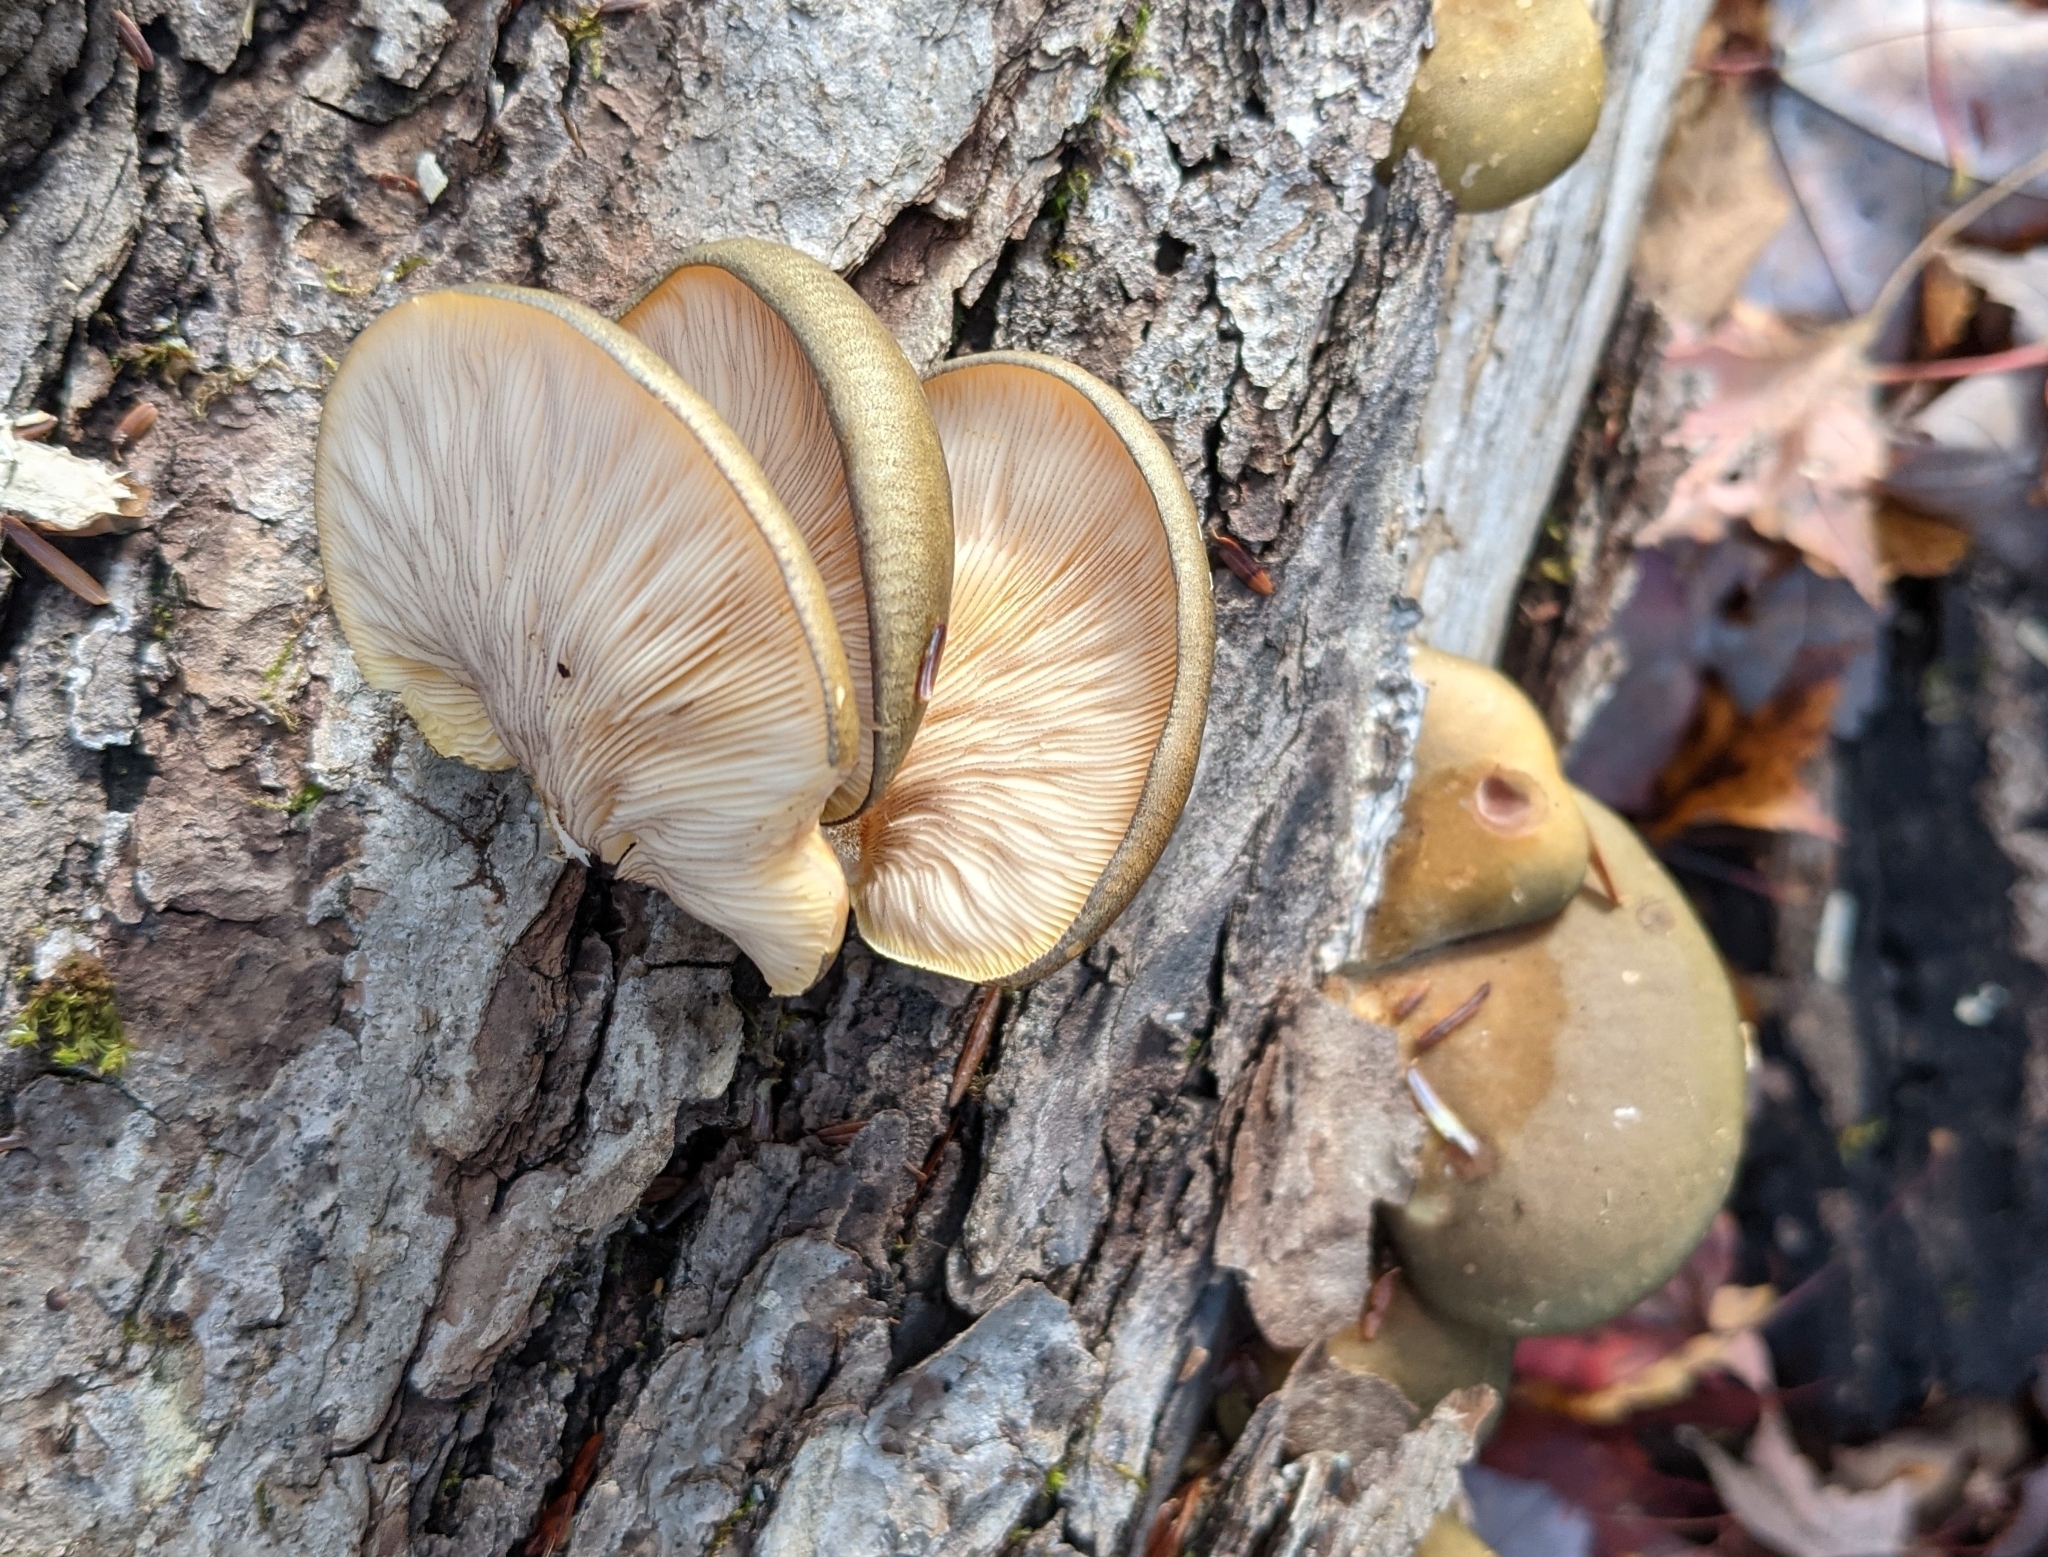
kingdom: Fungi
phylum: Basidiomycota
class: Agaricomycetes
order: Agaricales
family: Sarcomyxaceae
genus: Sarcomyxa
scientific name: Sarcomyxa serotina
